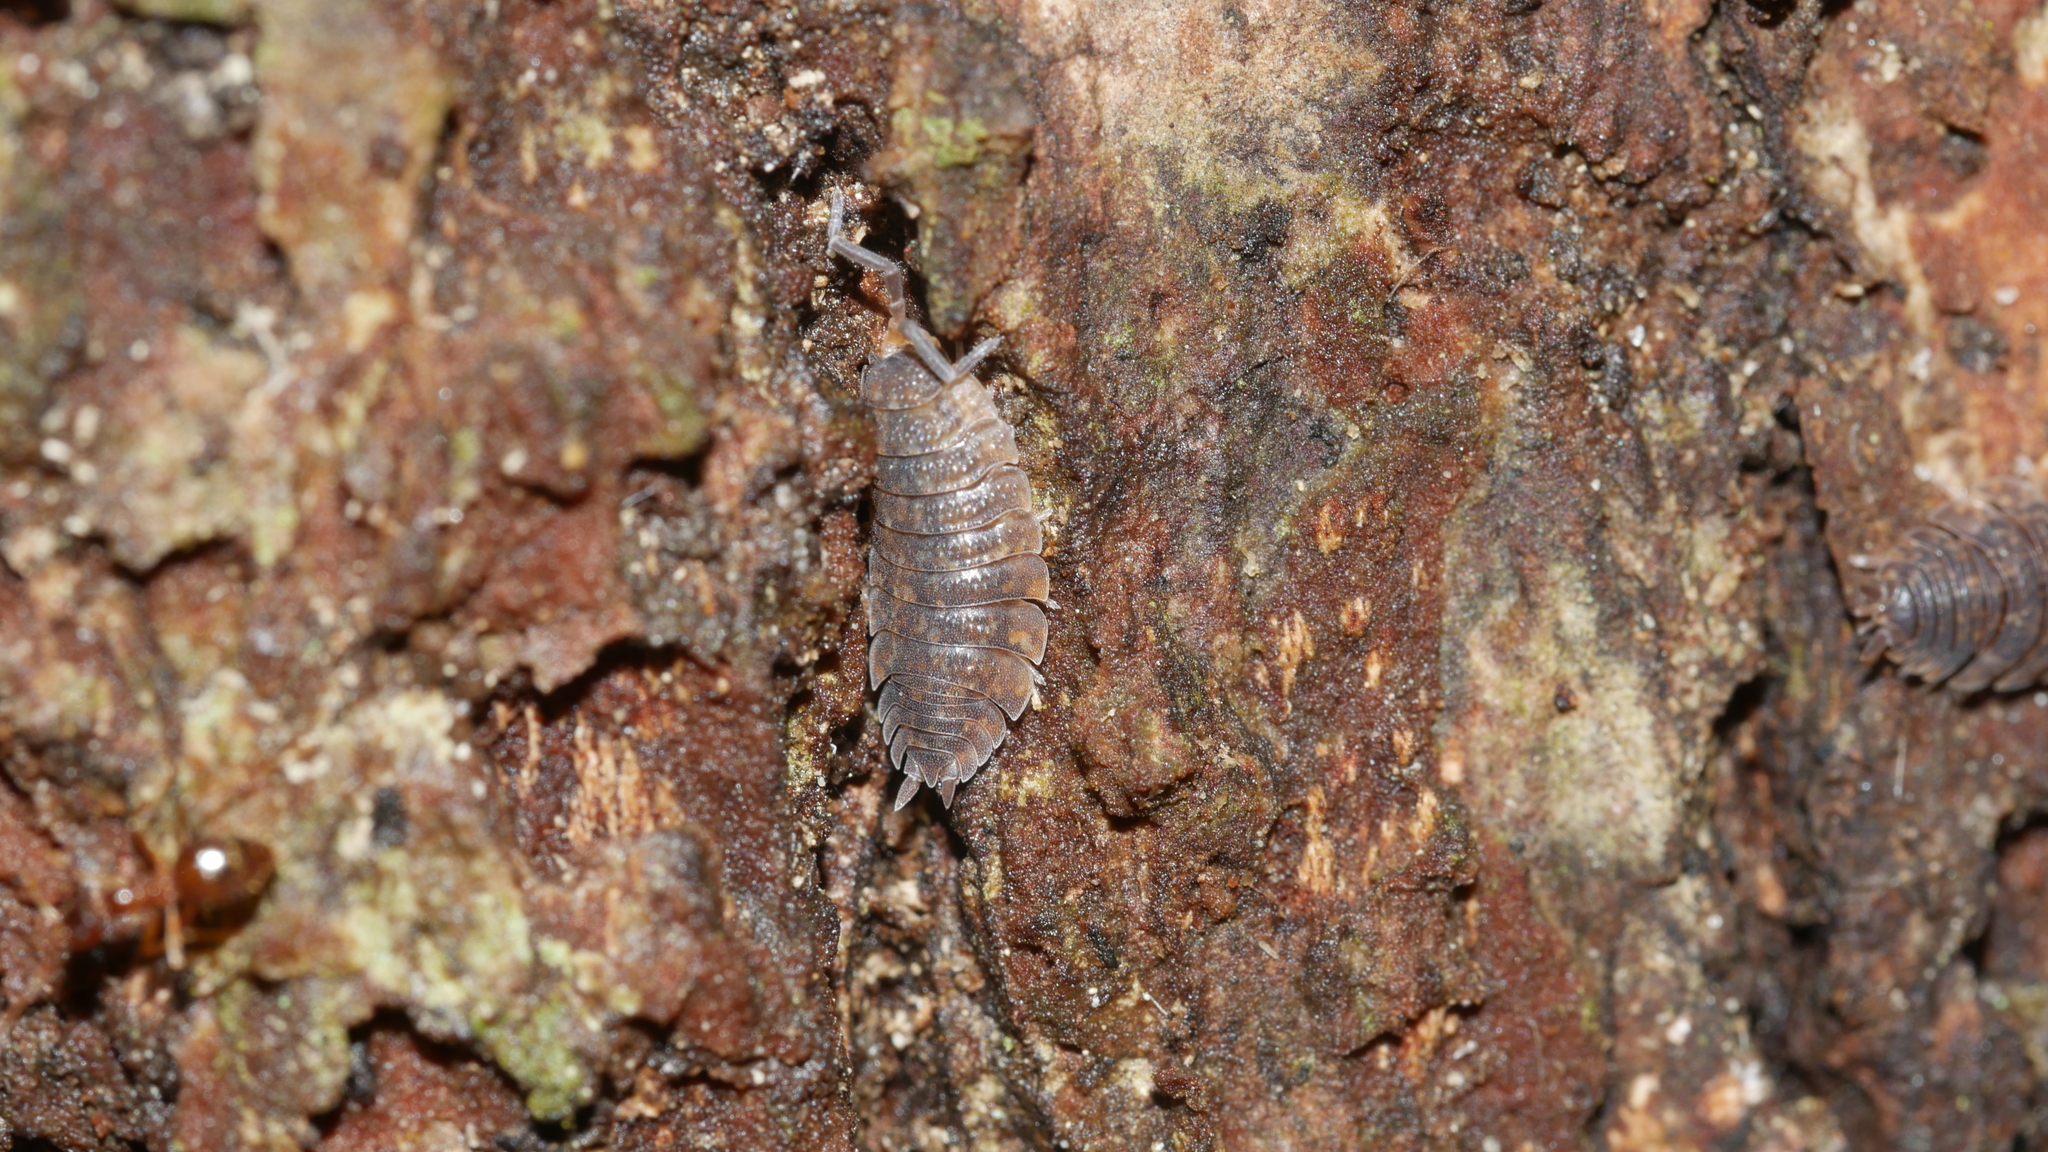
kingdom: Animalia
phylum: Arthropoda
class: Malacostraca
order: Isopoda
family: Porcellionidae
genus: Porcellio
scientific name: Porcellio scaber
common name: Common rough woodlouse
